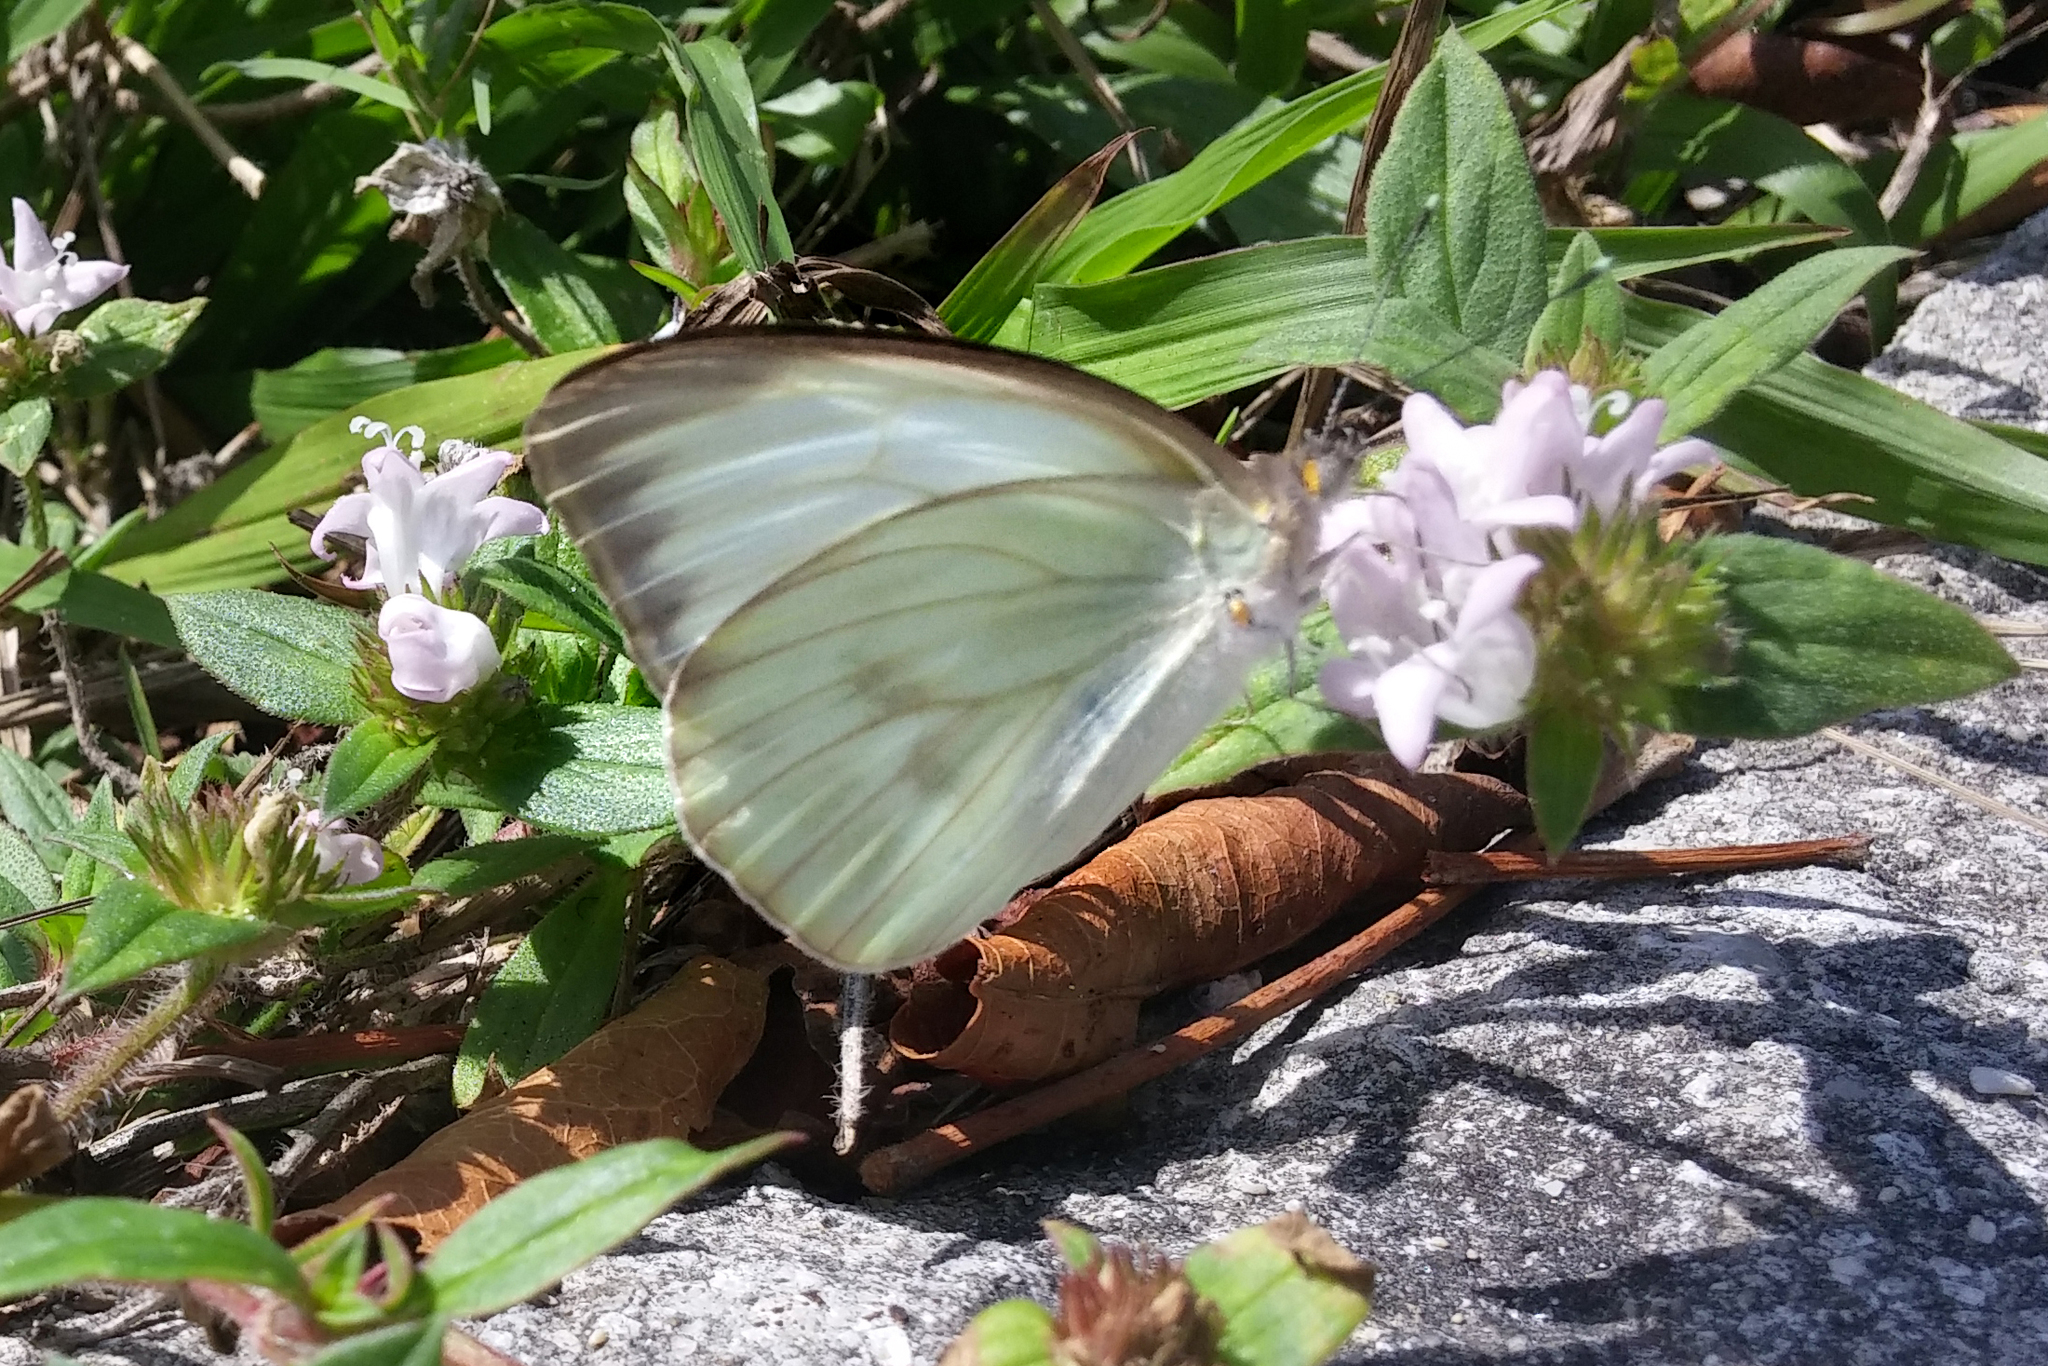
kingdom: Animalia
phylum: Arthropoda
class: Insecta
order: Lepidoptera
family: Pieridae
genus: Ascia
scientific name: Ascia monuste
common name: Great southern white
